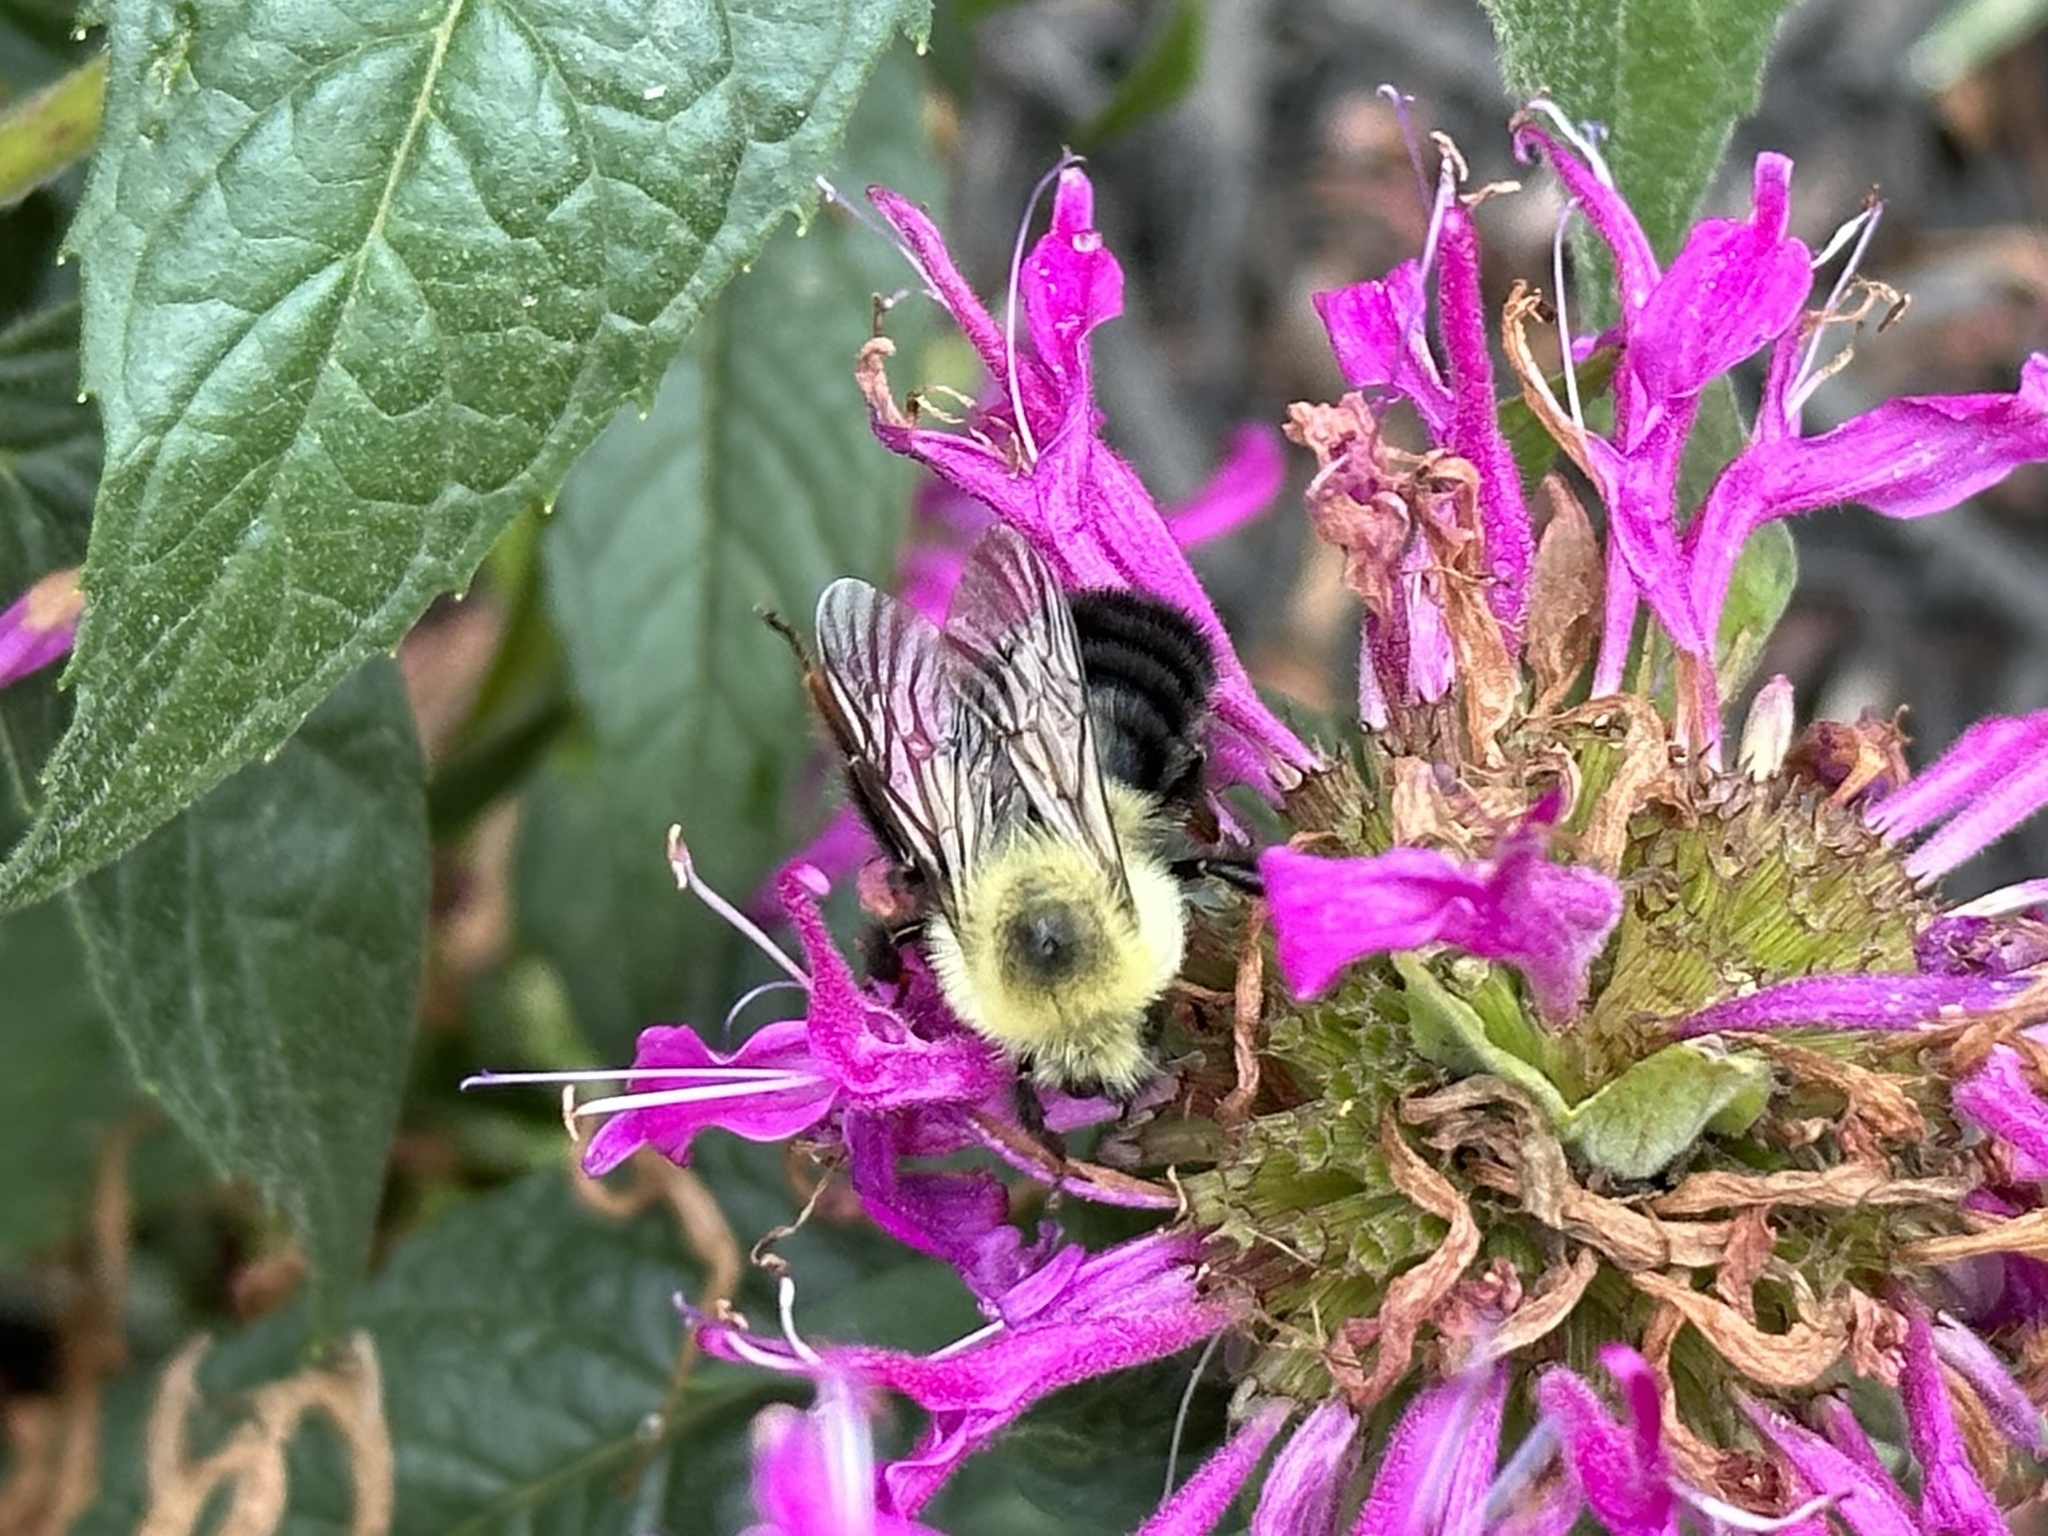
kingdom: Animalia
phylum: Arthropoda
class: Insecta
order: Hymenoptera
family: Apidae
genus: Bombus
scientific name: Bombus bimaculatus
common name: Two-spotted bumble bee
